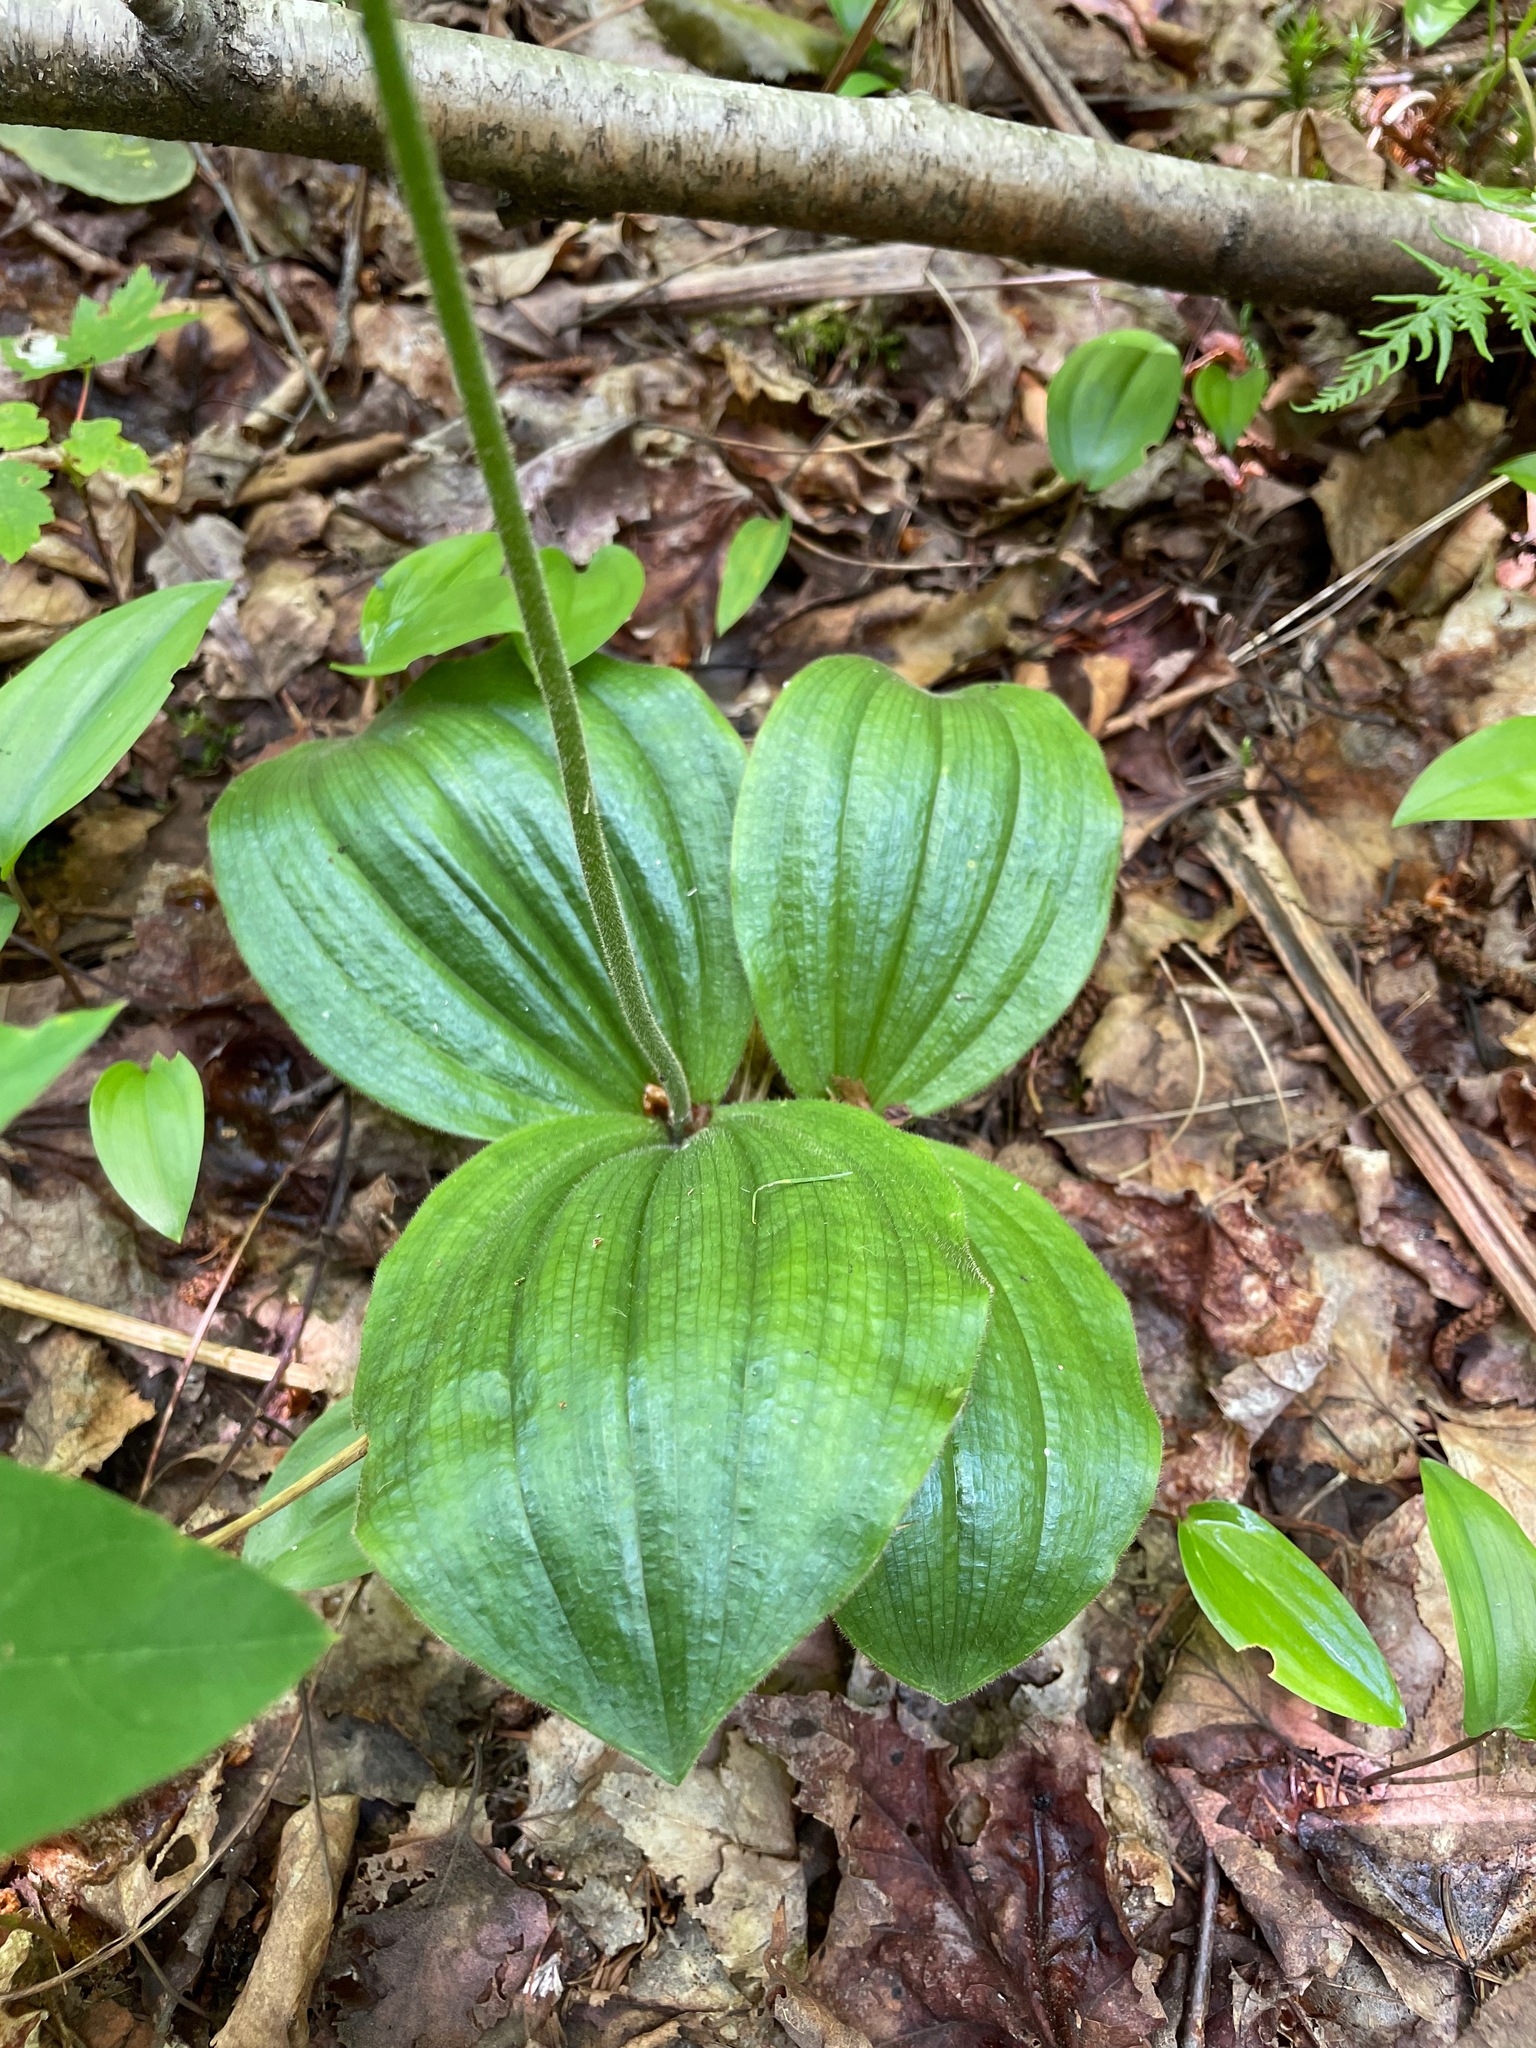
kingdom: Plantae
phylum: Tracheophyta
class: Liliopsida
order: Asparagales
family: Orchidaceae
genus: Cypripedium
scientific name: Cypripedium acaule
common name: Pink lady's-slipper
